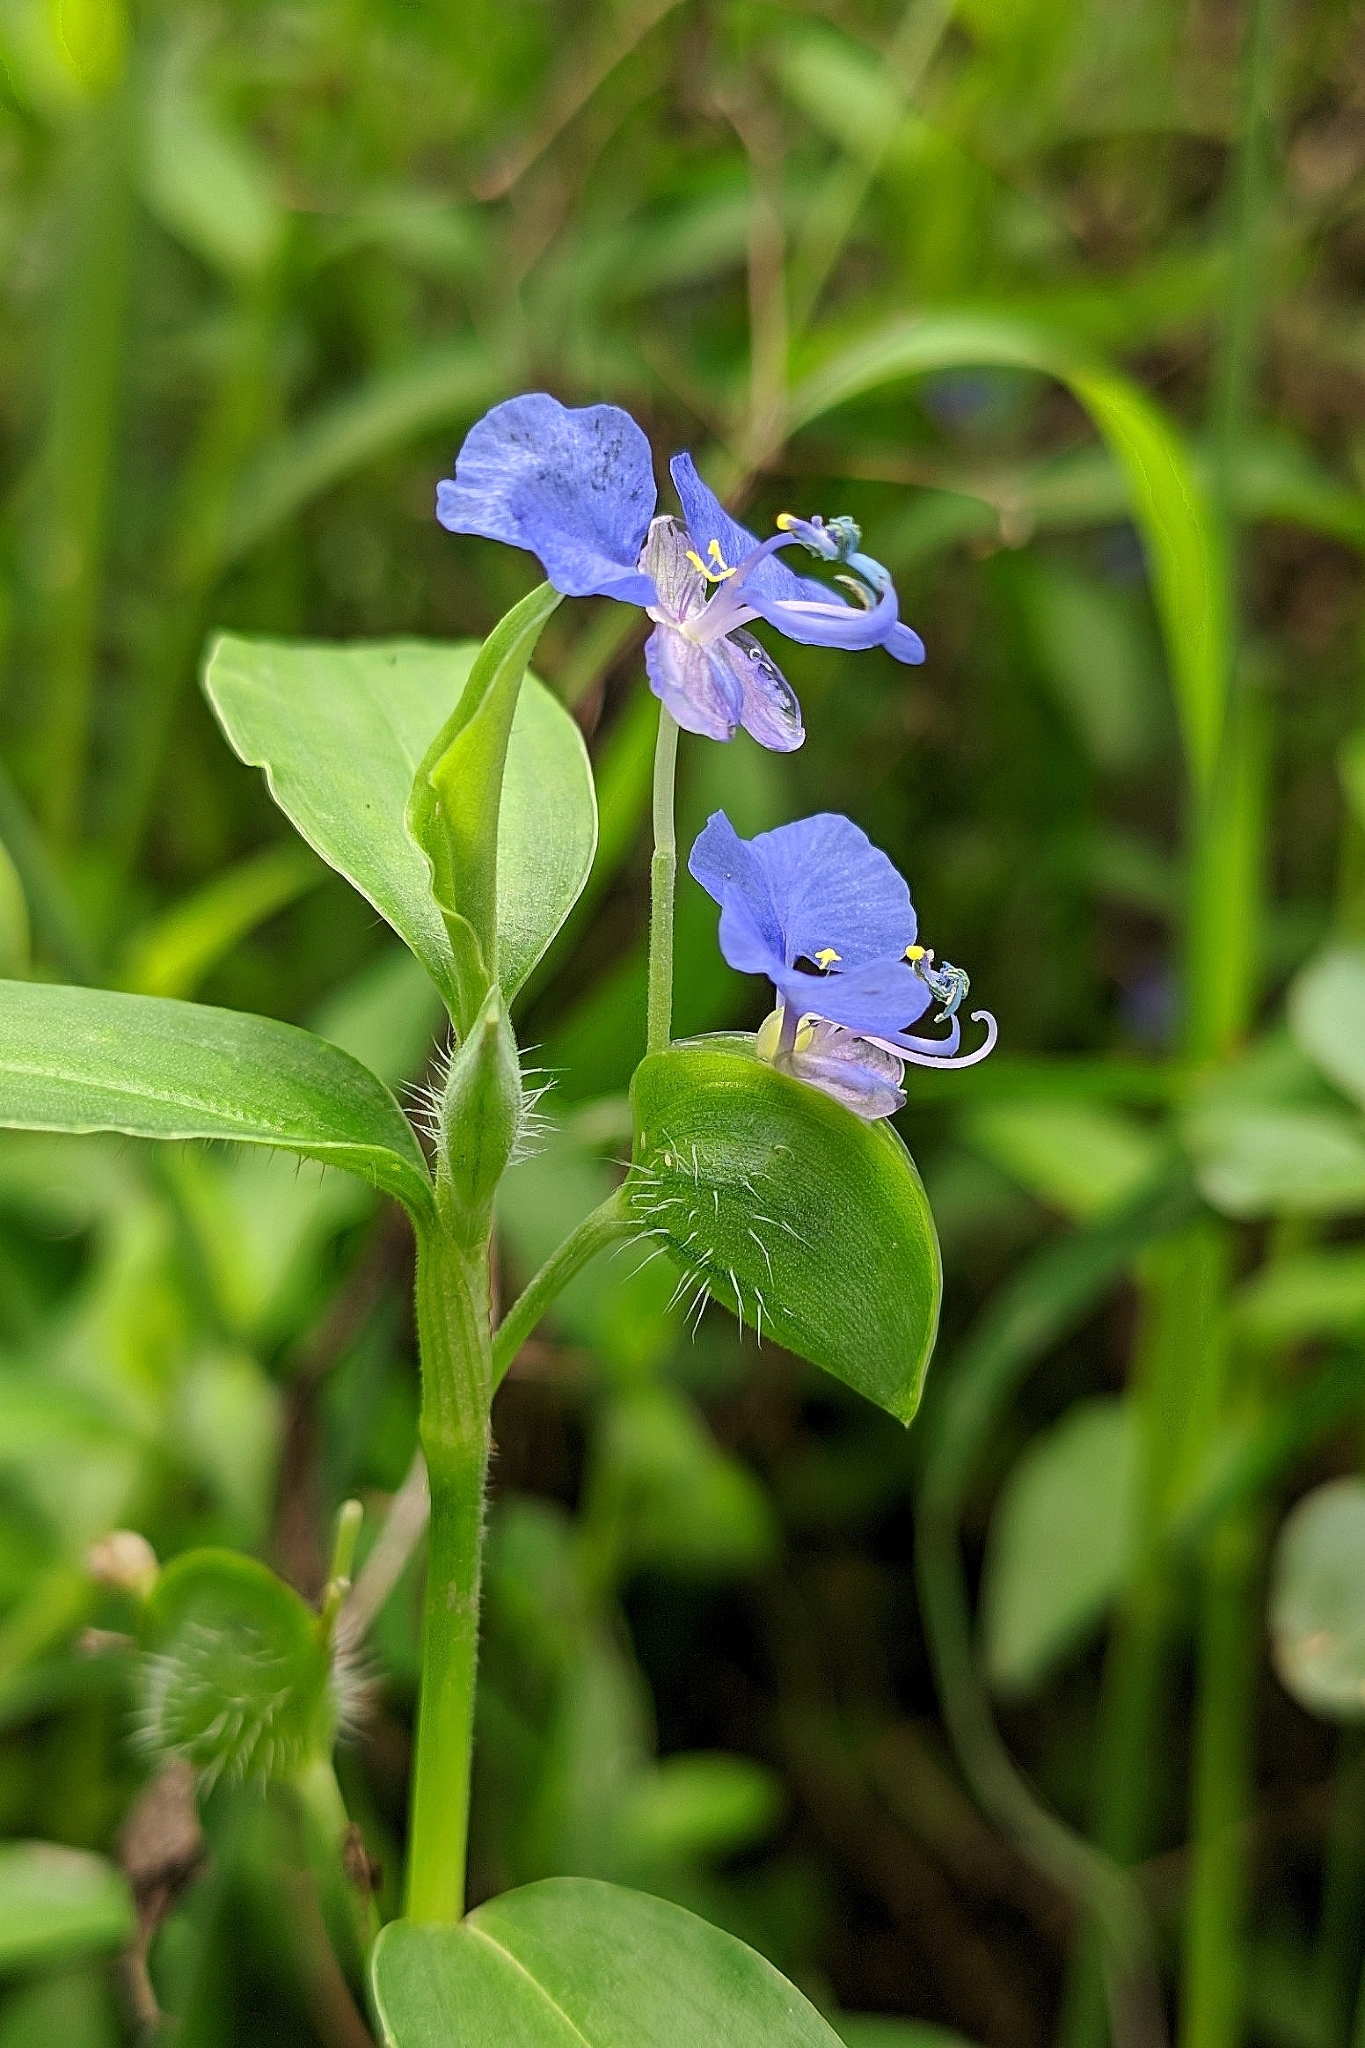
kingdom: Plantae
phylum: Tracheophyta
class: Liliopsida
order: Commelinales
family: Commelinaceae
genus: Commelina
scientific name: Commelina forskaolii
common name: Rat's ear
